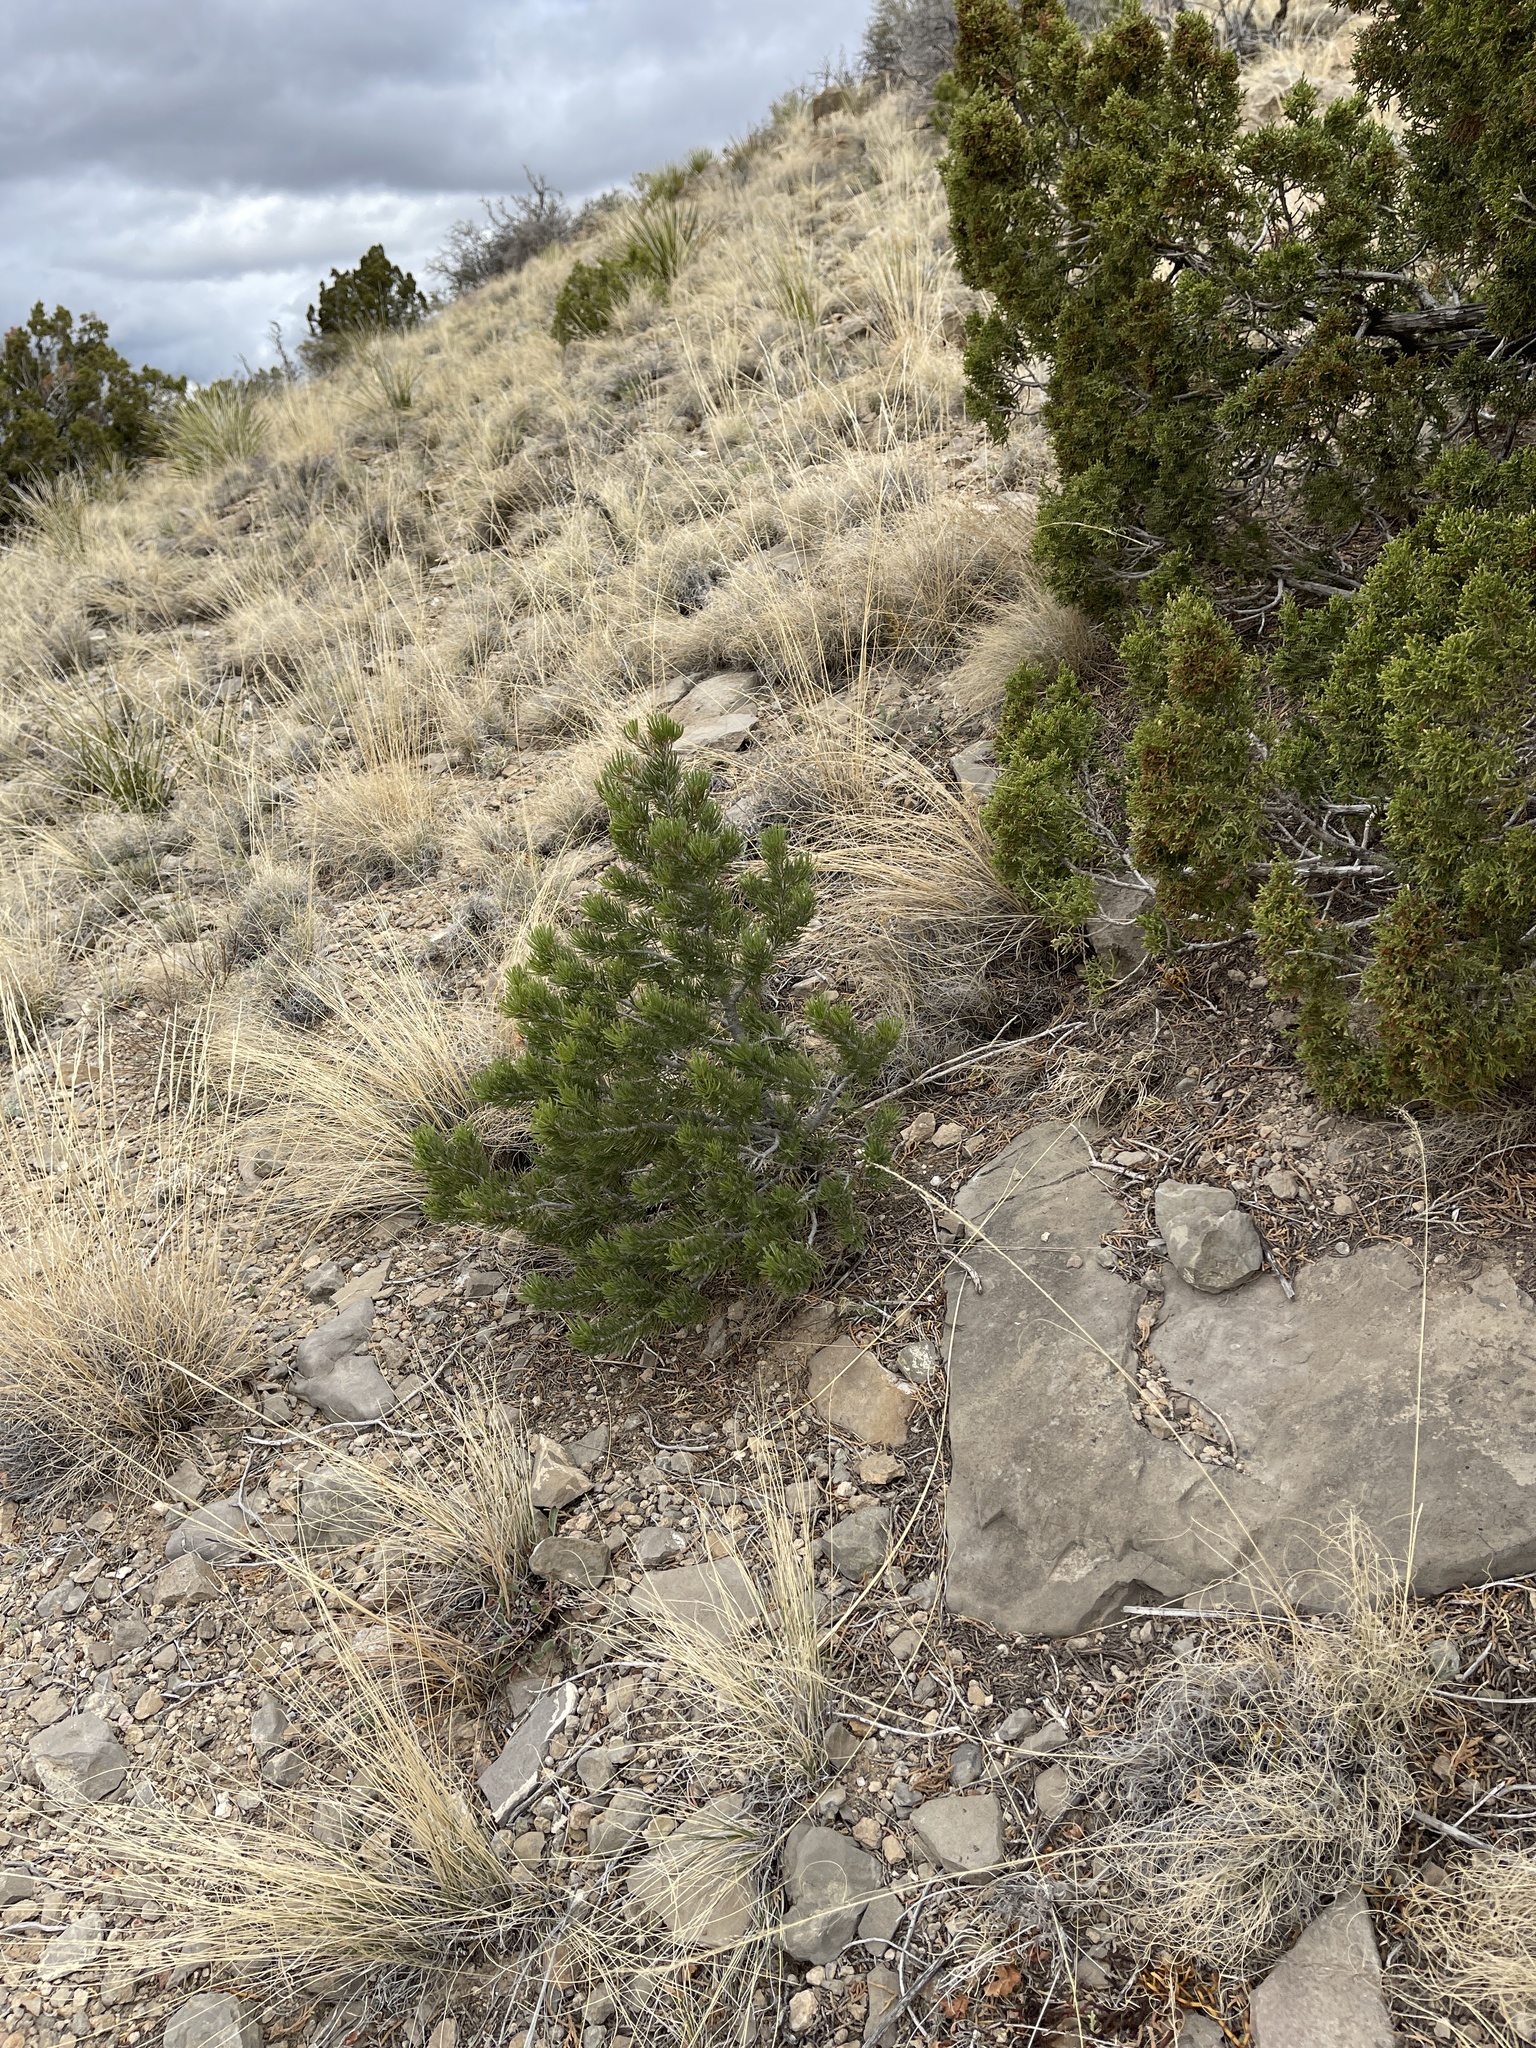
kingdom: Plantae
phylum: Tracheophyta
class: Pinopsida
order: Pinales
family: Pinaceae
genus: Pinus
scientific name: Pinus edulis
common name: Colorado pinyon
